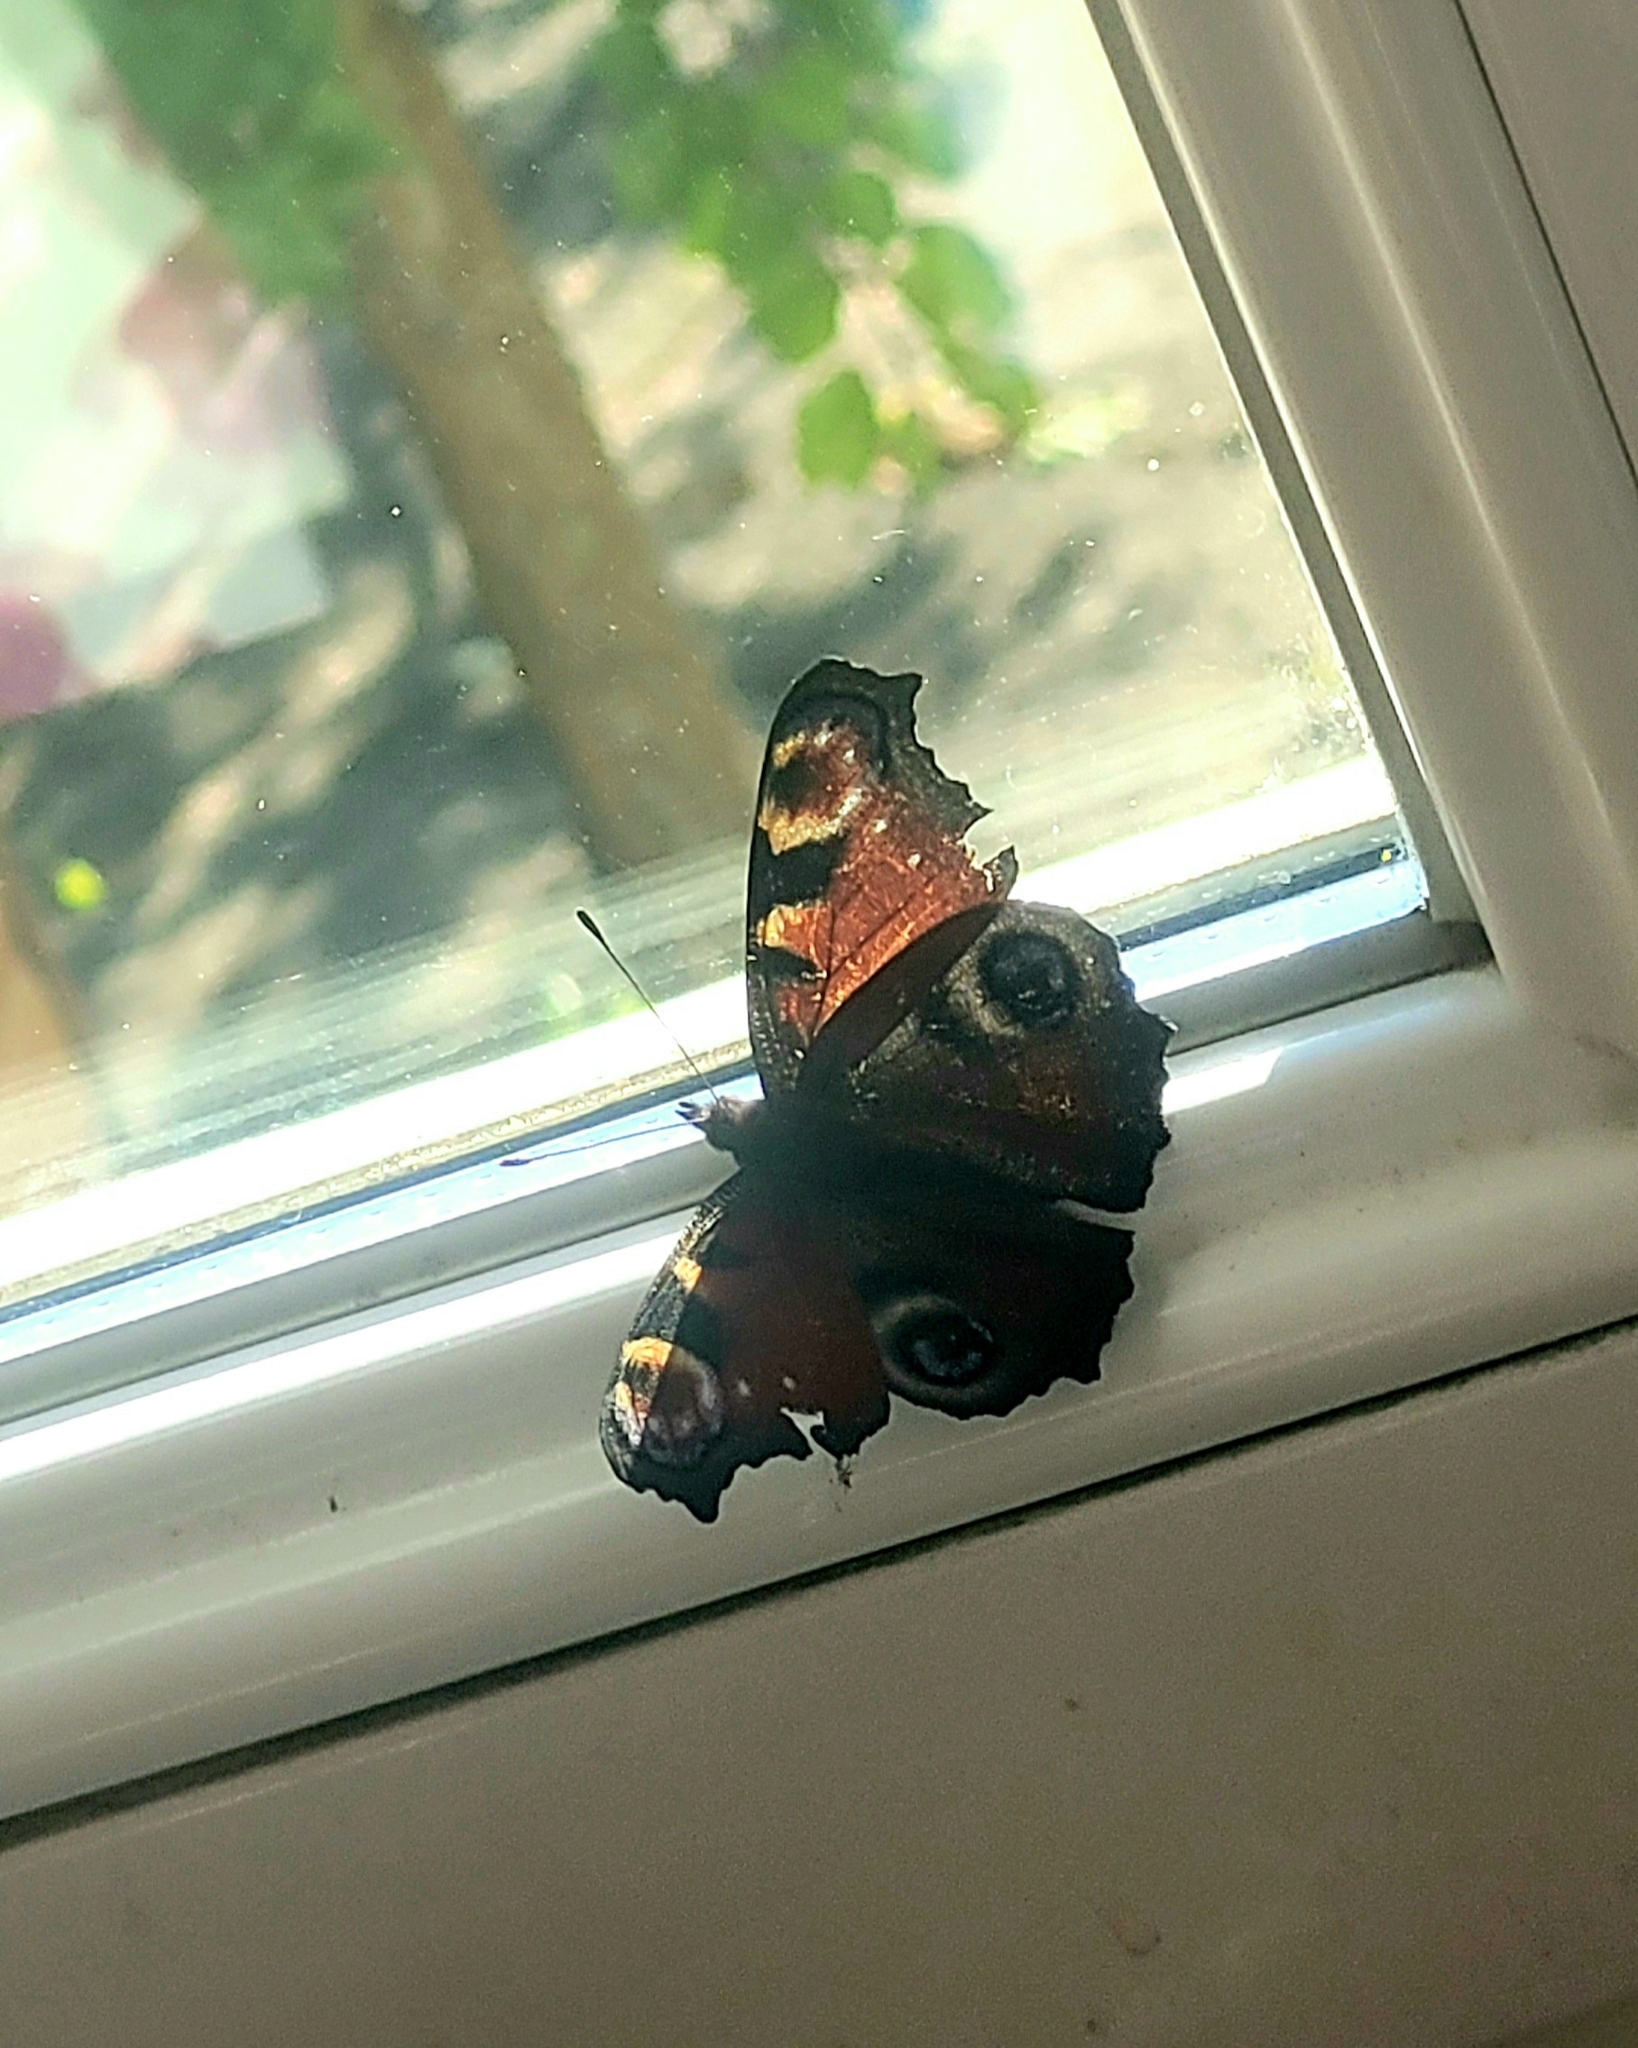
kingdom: Animalia
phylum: Arthropoda
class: Insecta
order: Lepidoptera
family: Nymphalidae
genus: Aglais
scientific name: Aglais io
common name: Peacock
